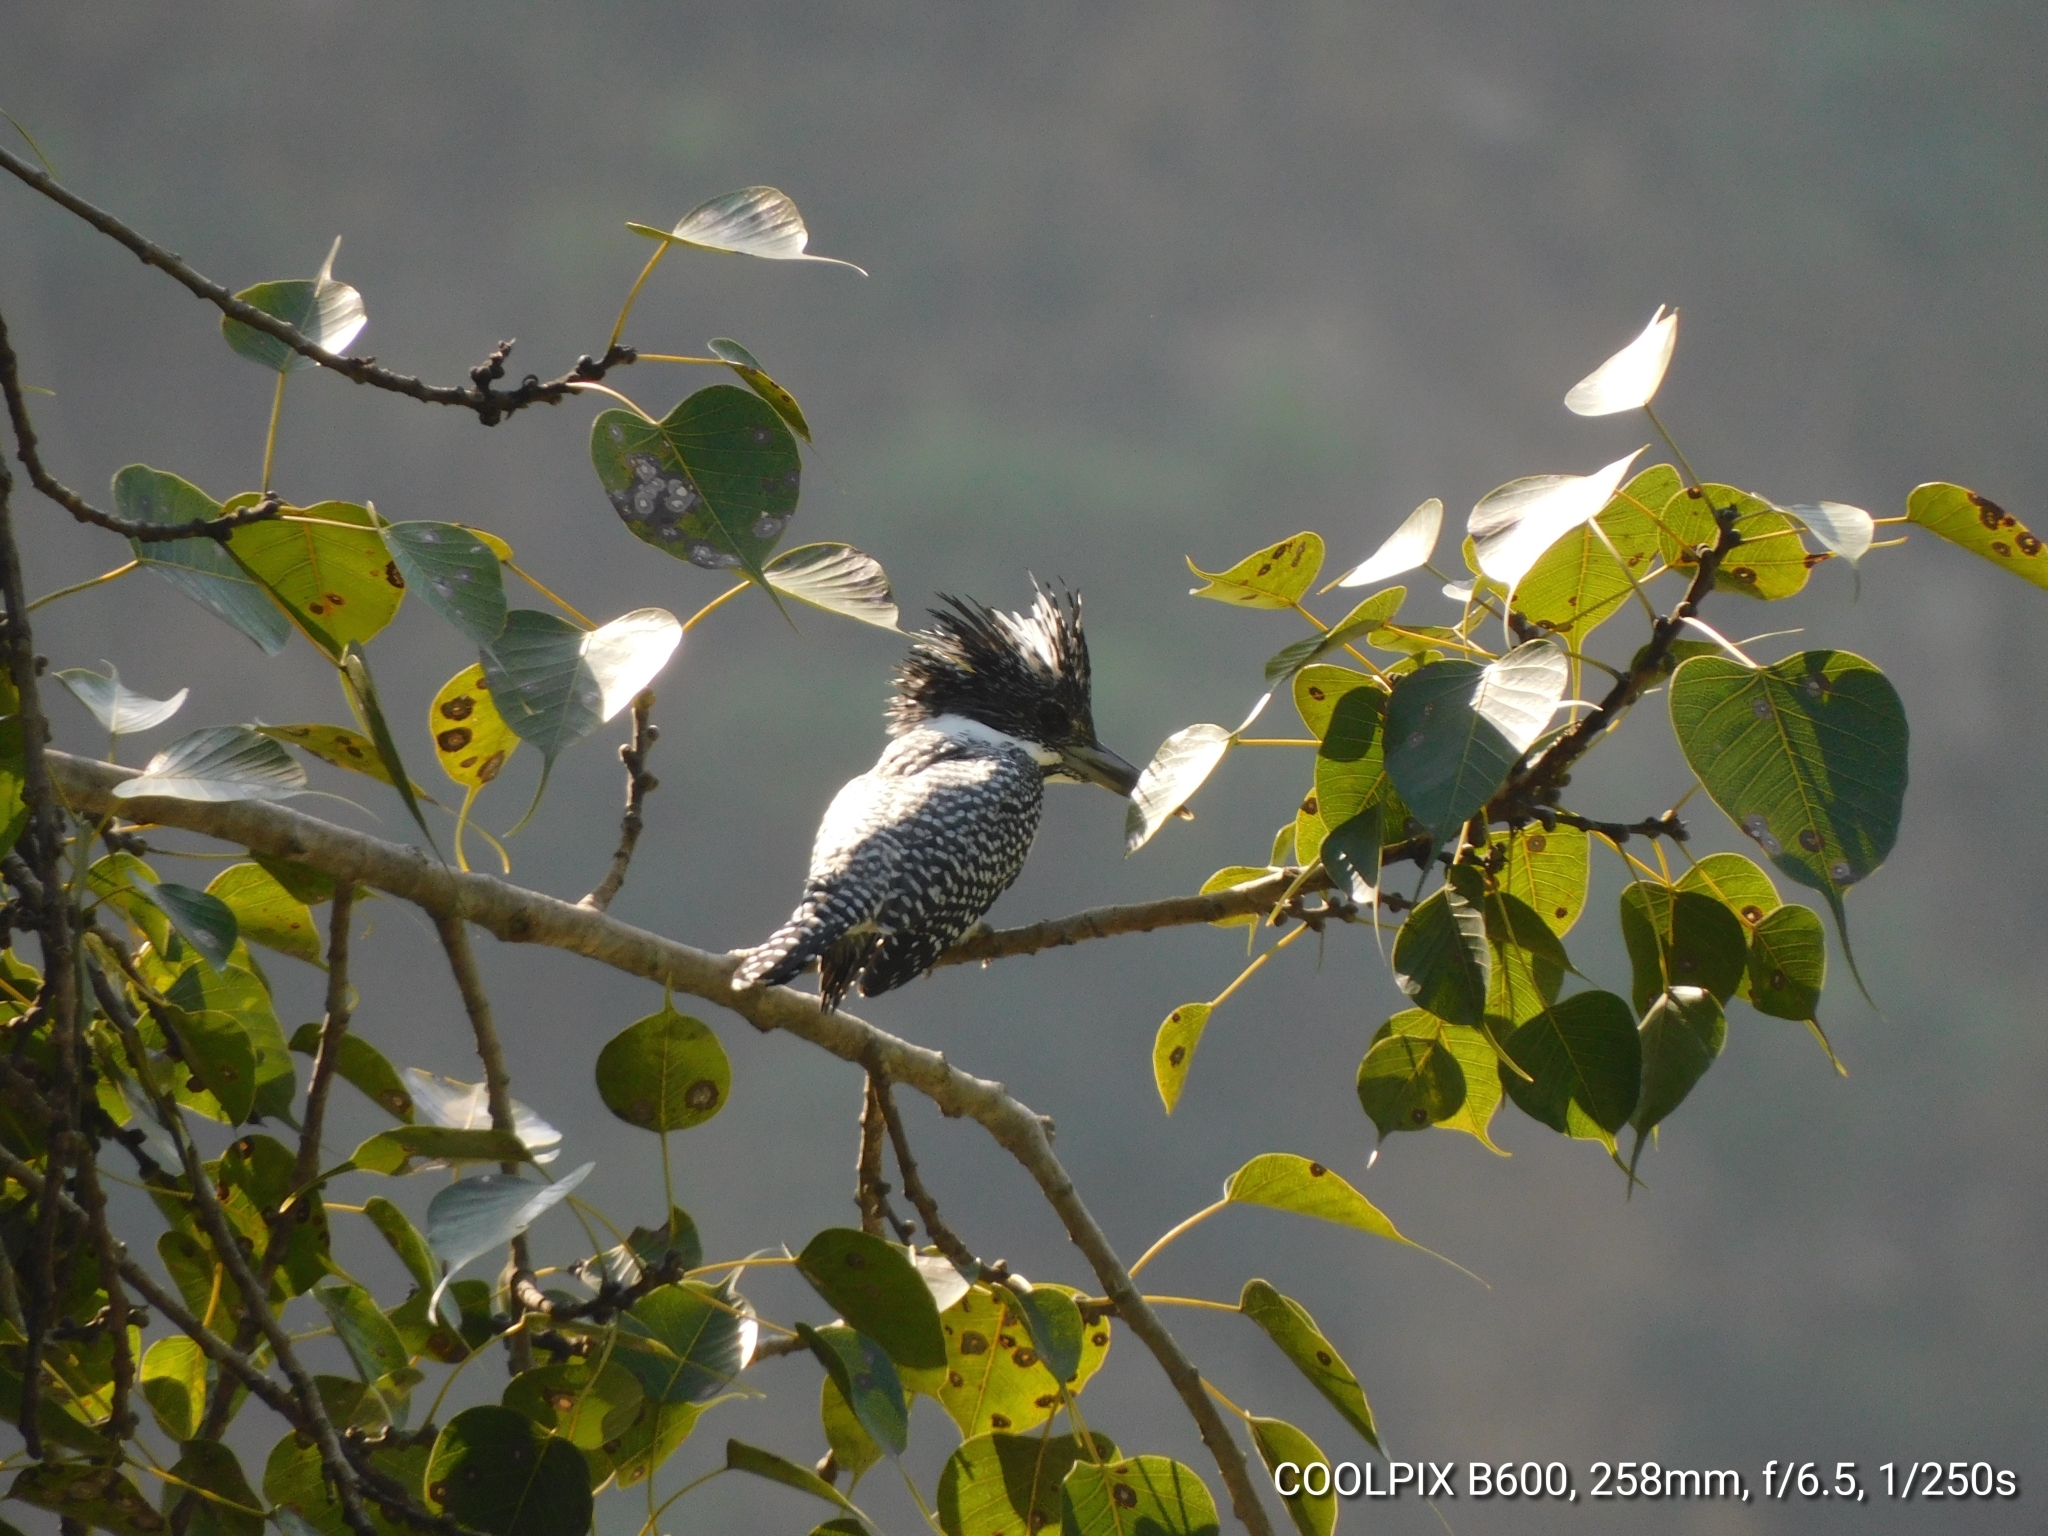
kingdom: Animalia
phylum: Chordata
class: Aves
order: Coraciiformes
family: Alcedinidae
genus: Megaceryle
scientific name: Megaceryle lugubris
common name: Crested kingfisher
